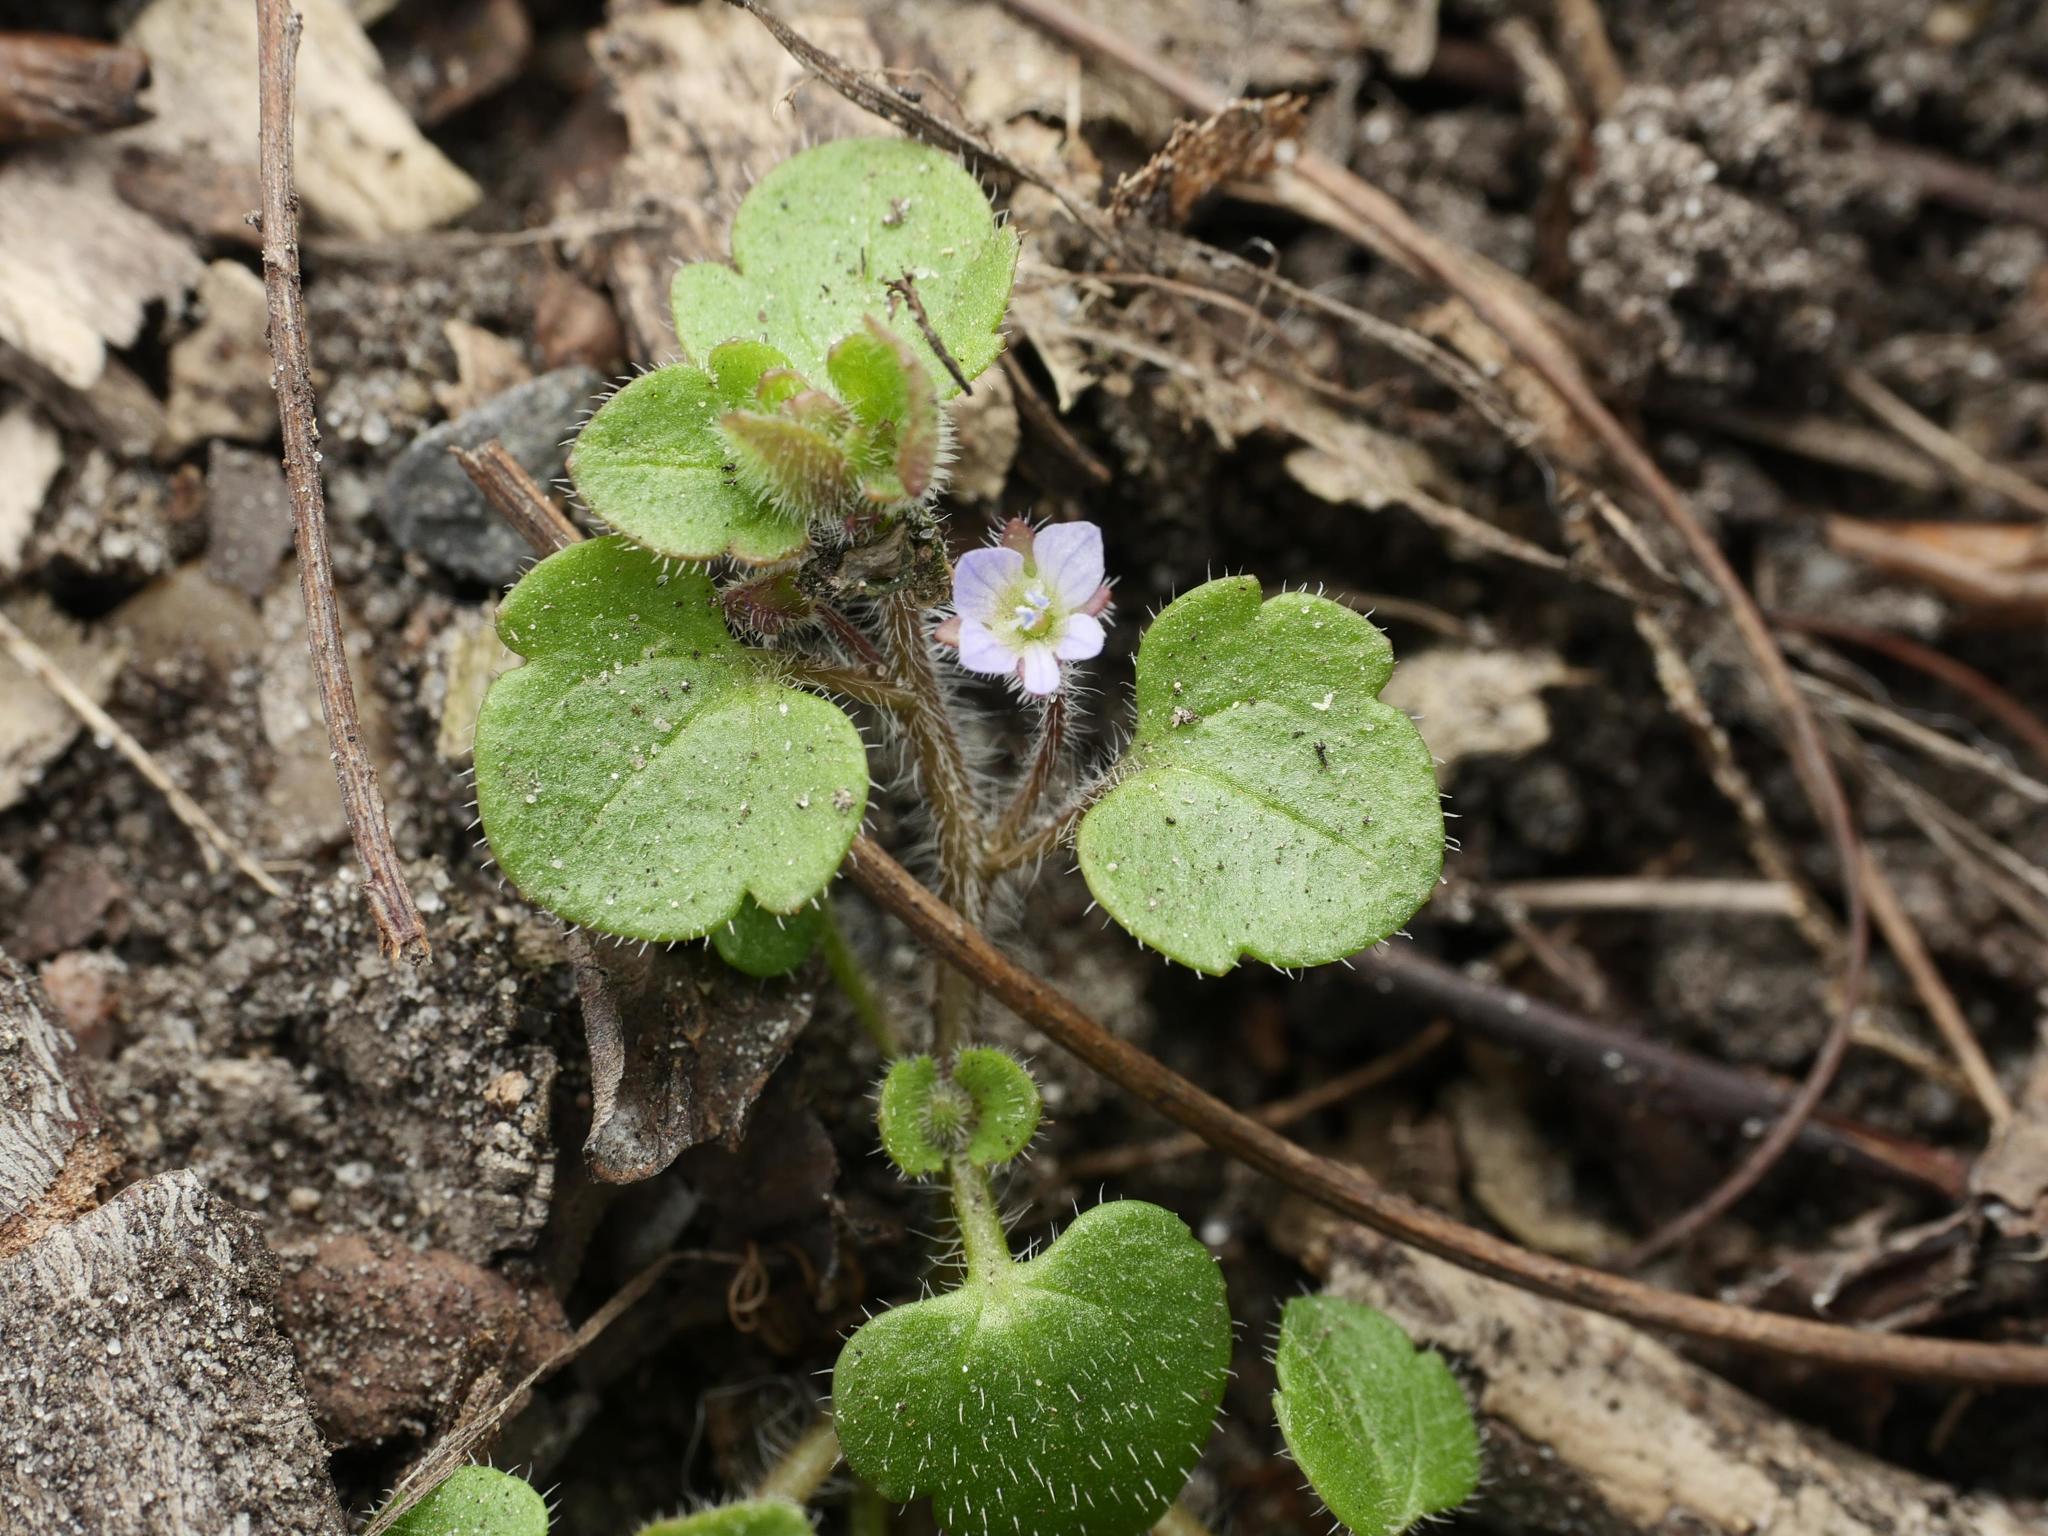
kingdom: Plantae
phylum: Tracheophyta
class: Magnoliopsida
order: Lamiales
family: Plantaginaceae
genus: Veronica
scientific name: Veronica sublobata
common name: False ivy-leaved speedwell
